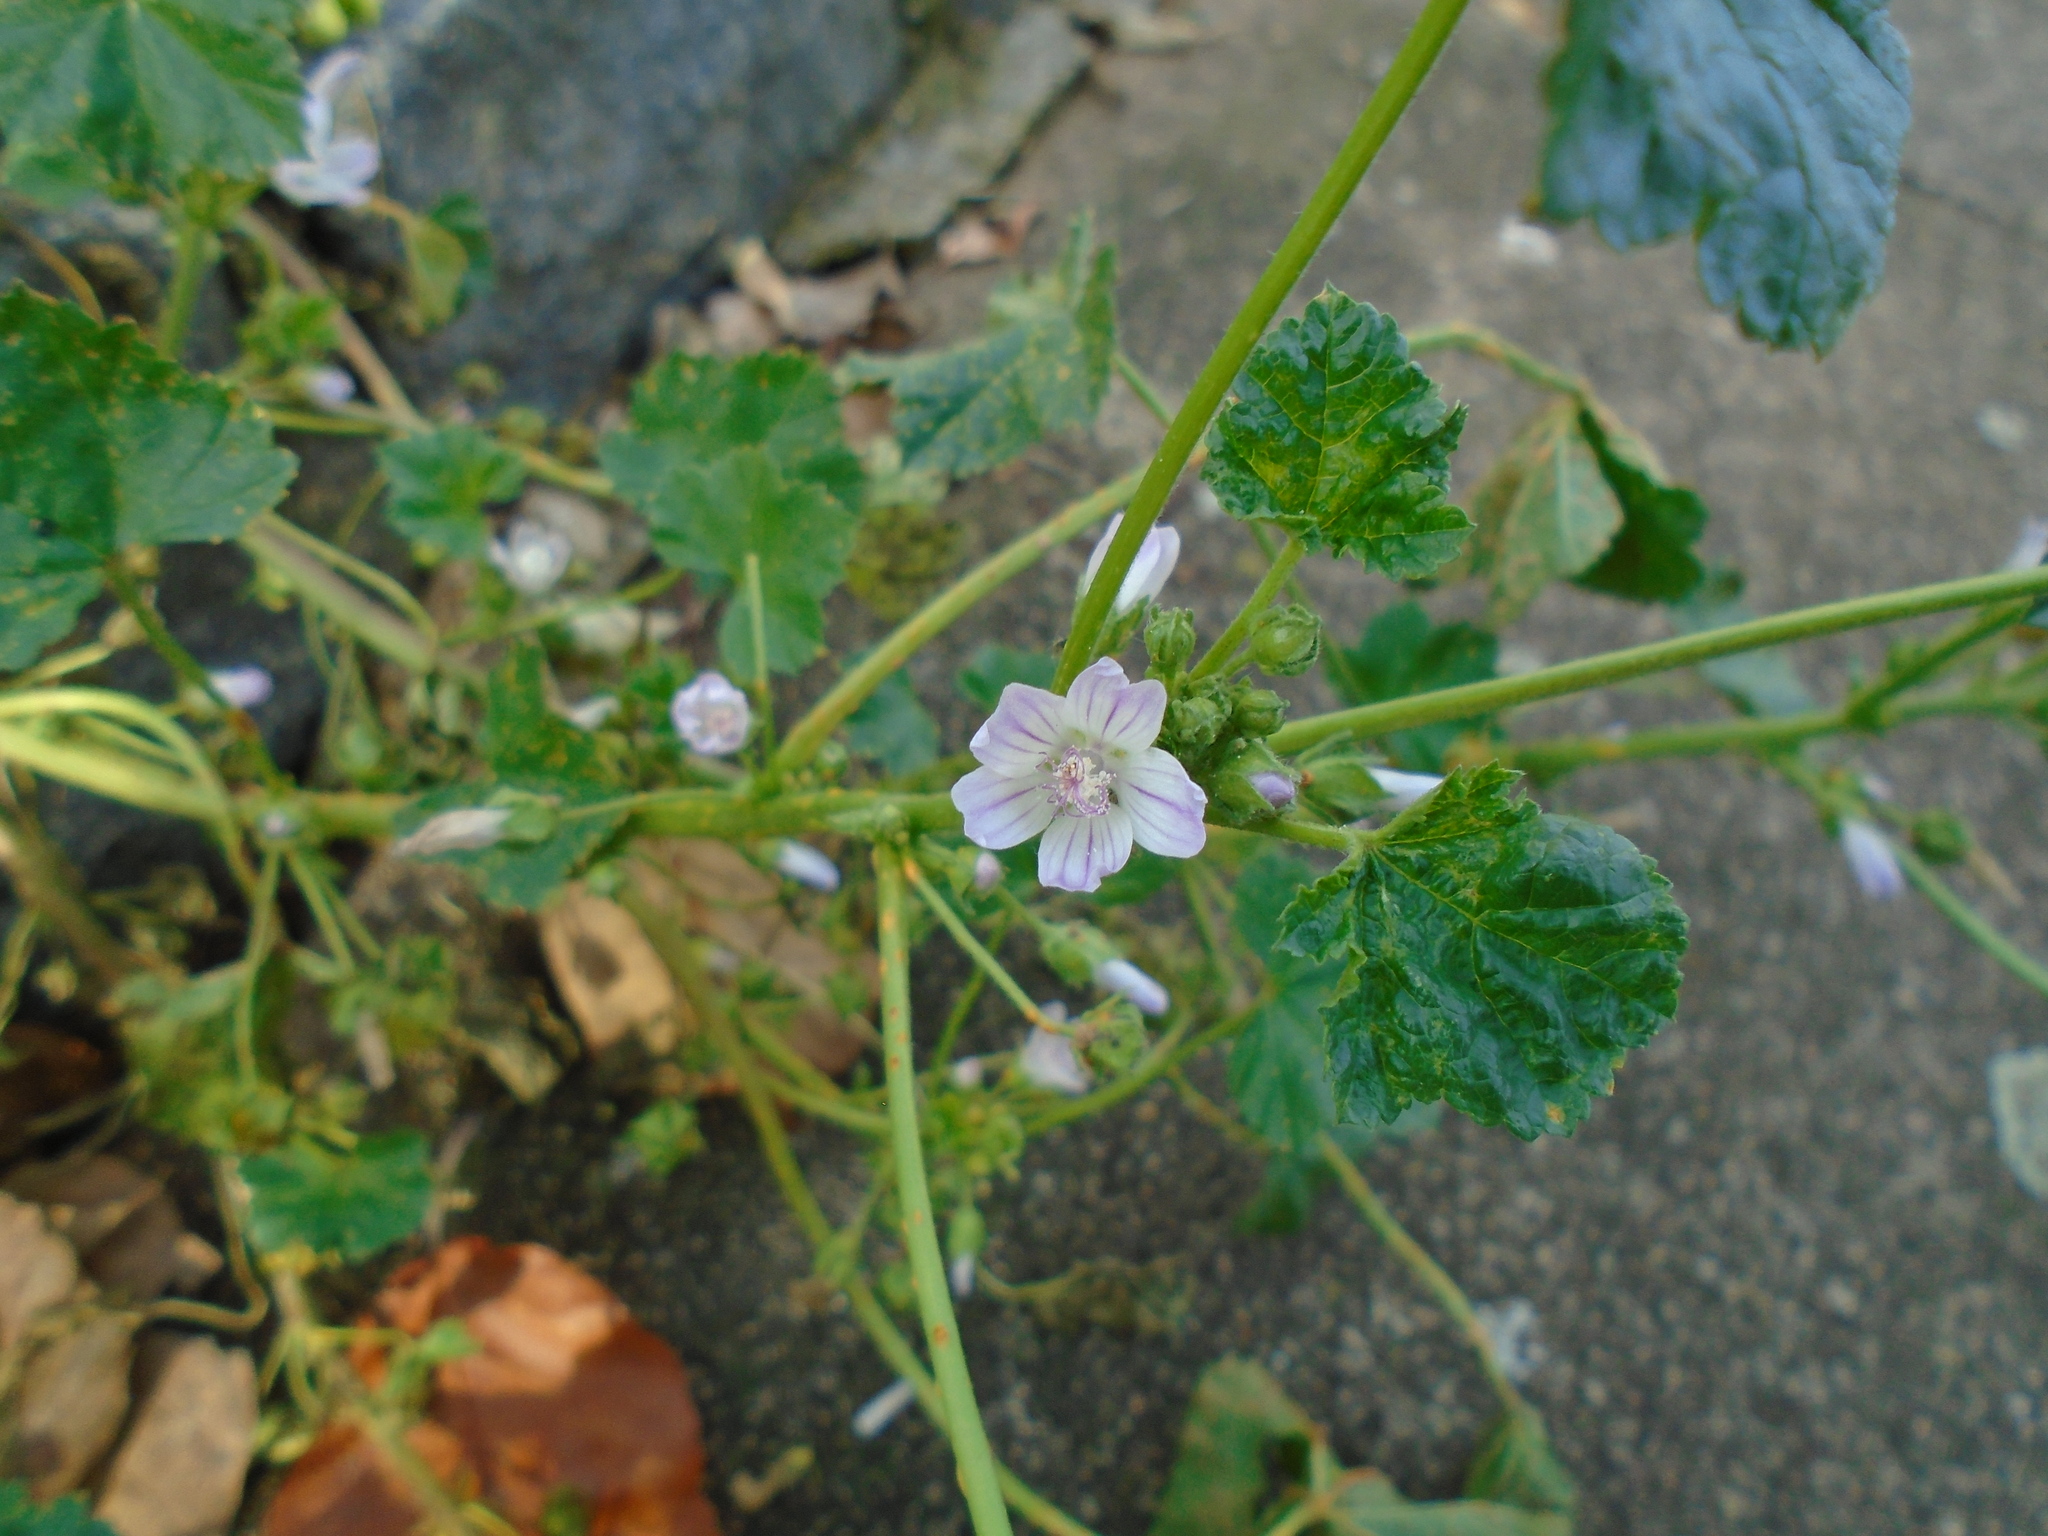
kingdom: Plantae
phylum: Tracheophyta
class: Magnoliopsida
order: Malvales
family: Malvaceae
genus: Malva
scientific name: Malva neglecta
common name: Common mallow
